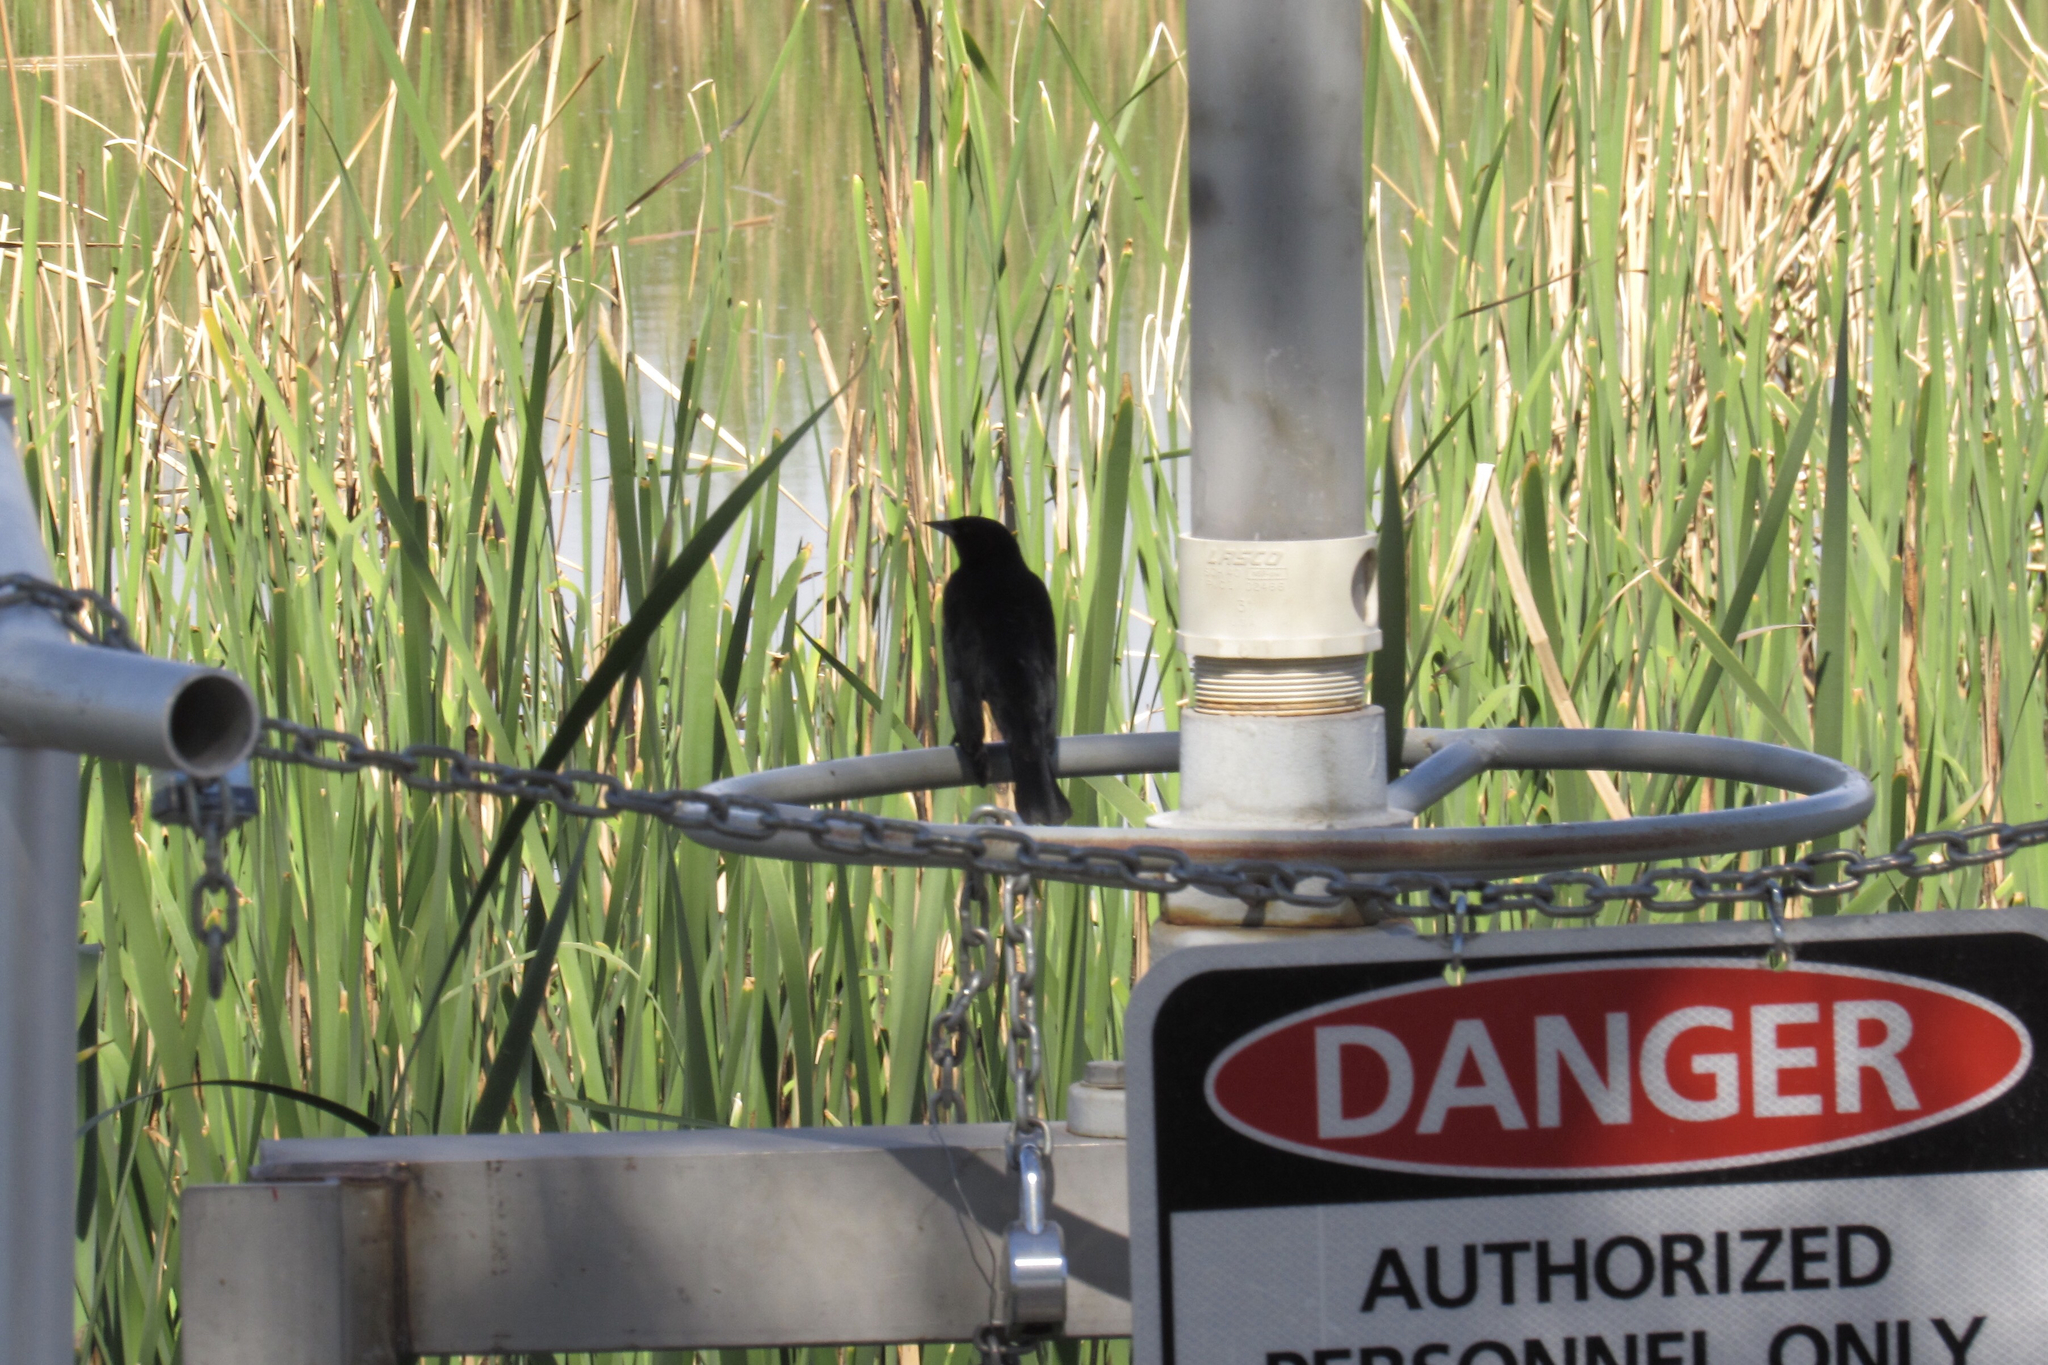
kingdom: Animalia
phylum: Chordata
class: Aves
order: Passeriformes
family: Icteridae
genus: Agelaius
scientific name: Agelaius phoeniceus
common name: Red-winged blackbird
